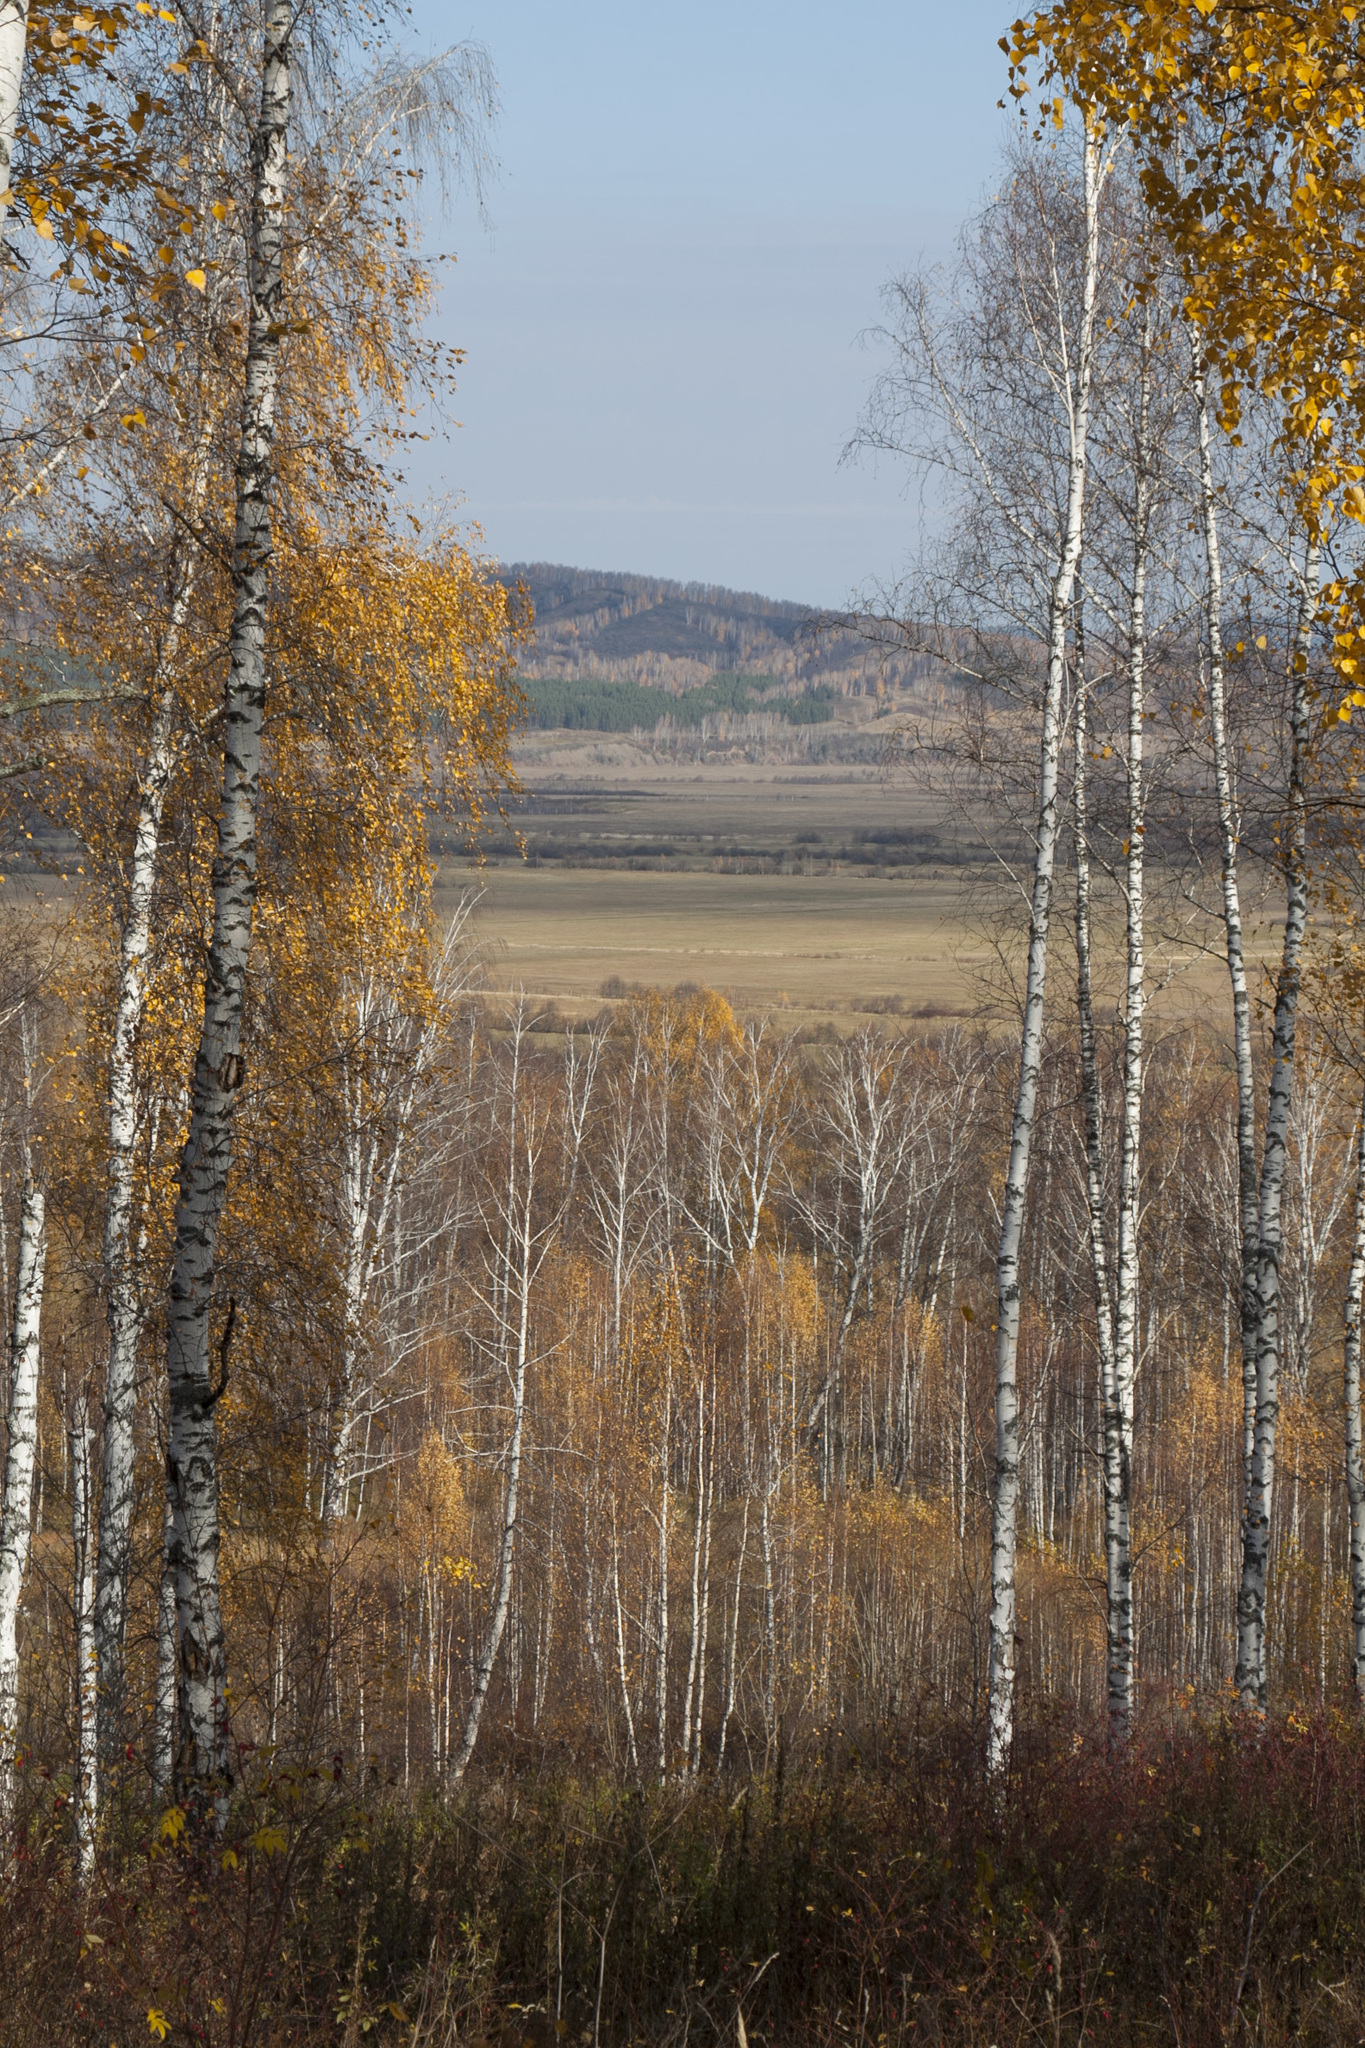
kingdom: Plantae
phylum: Tracheophyta
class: Magnoliopsida
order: Fagales
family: Betulaceae
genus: Betula
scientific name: Betula pendula
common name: Silver birch
